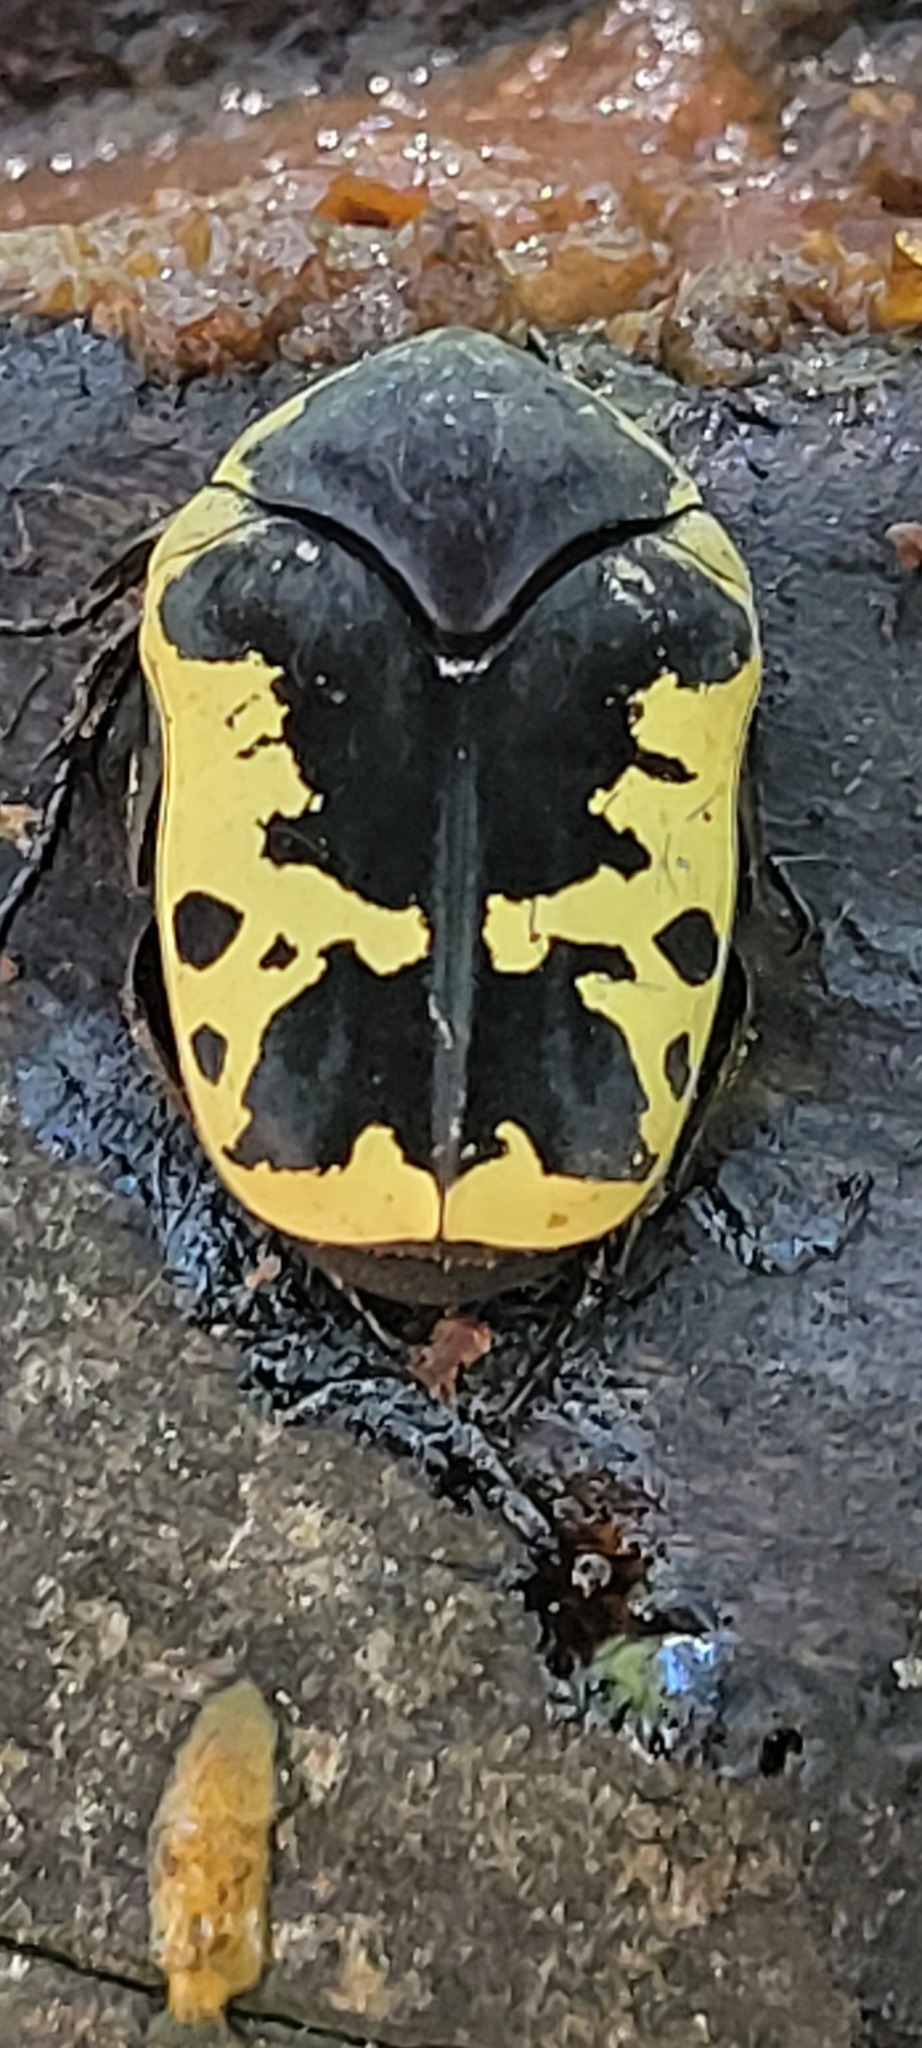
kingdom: Animalia
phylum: Arthropoda
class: Insecta
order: Coleoptera
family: Scarabaeidae
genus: Gymnetis
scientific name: Gymnetis thula
